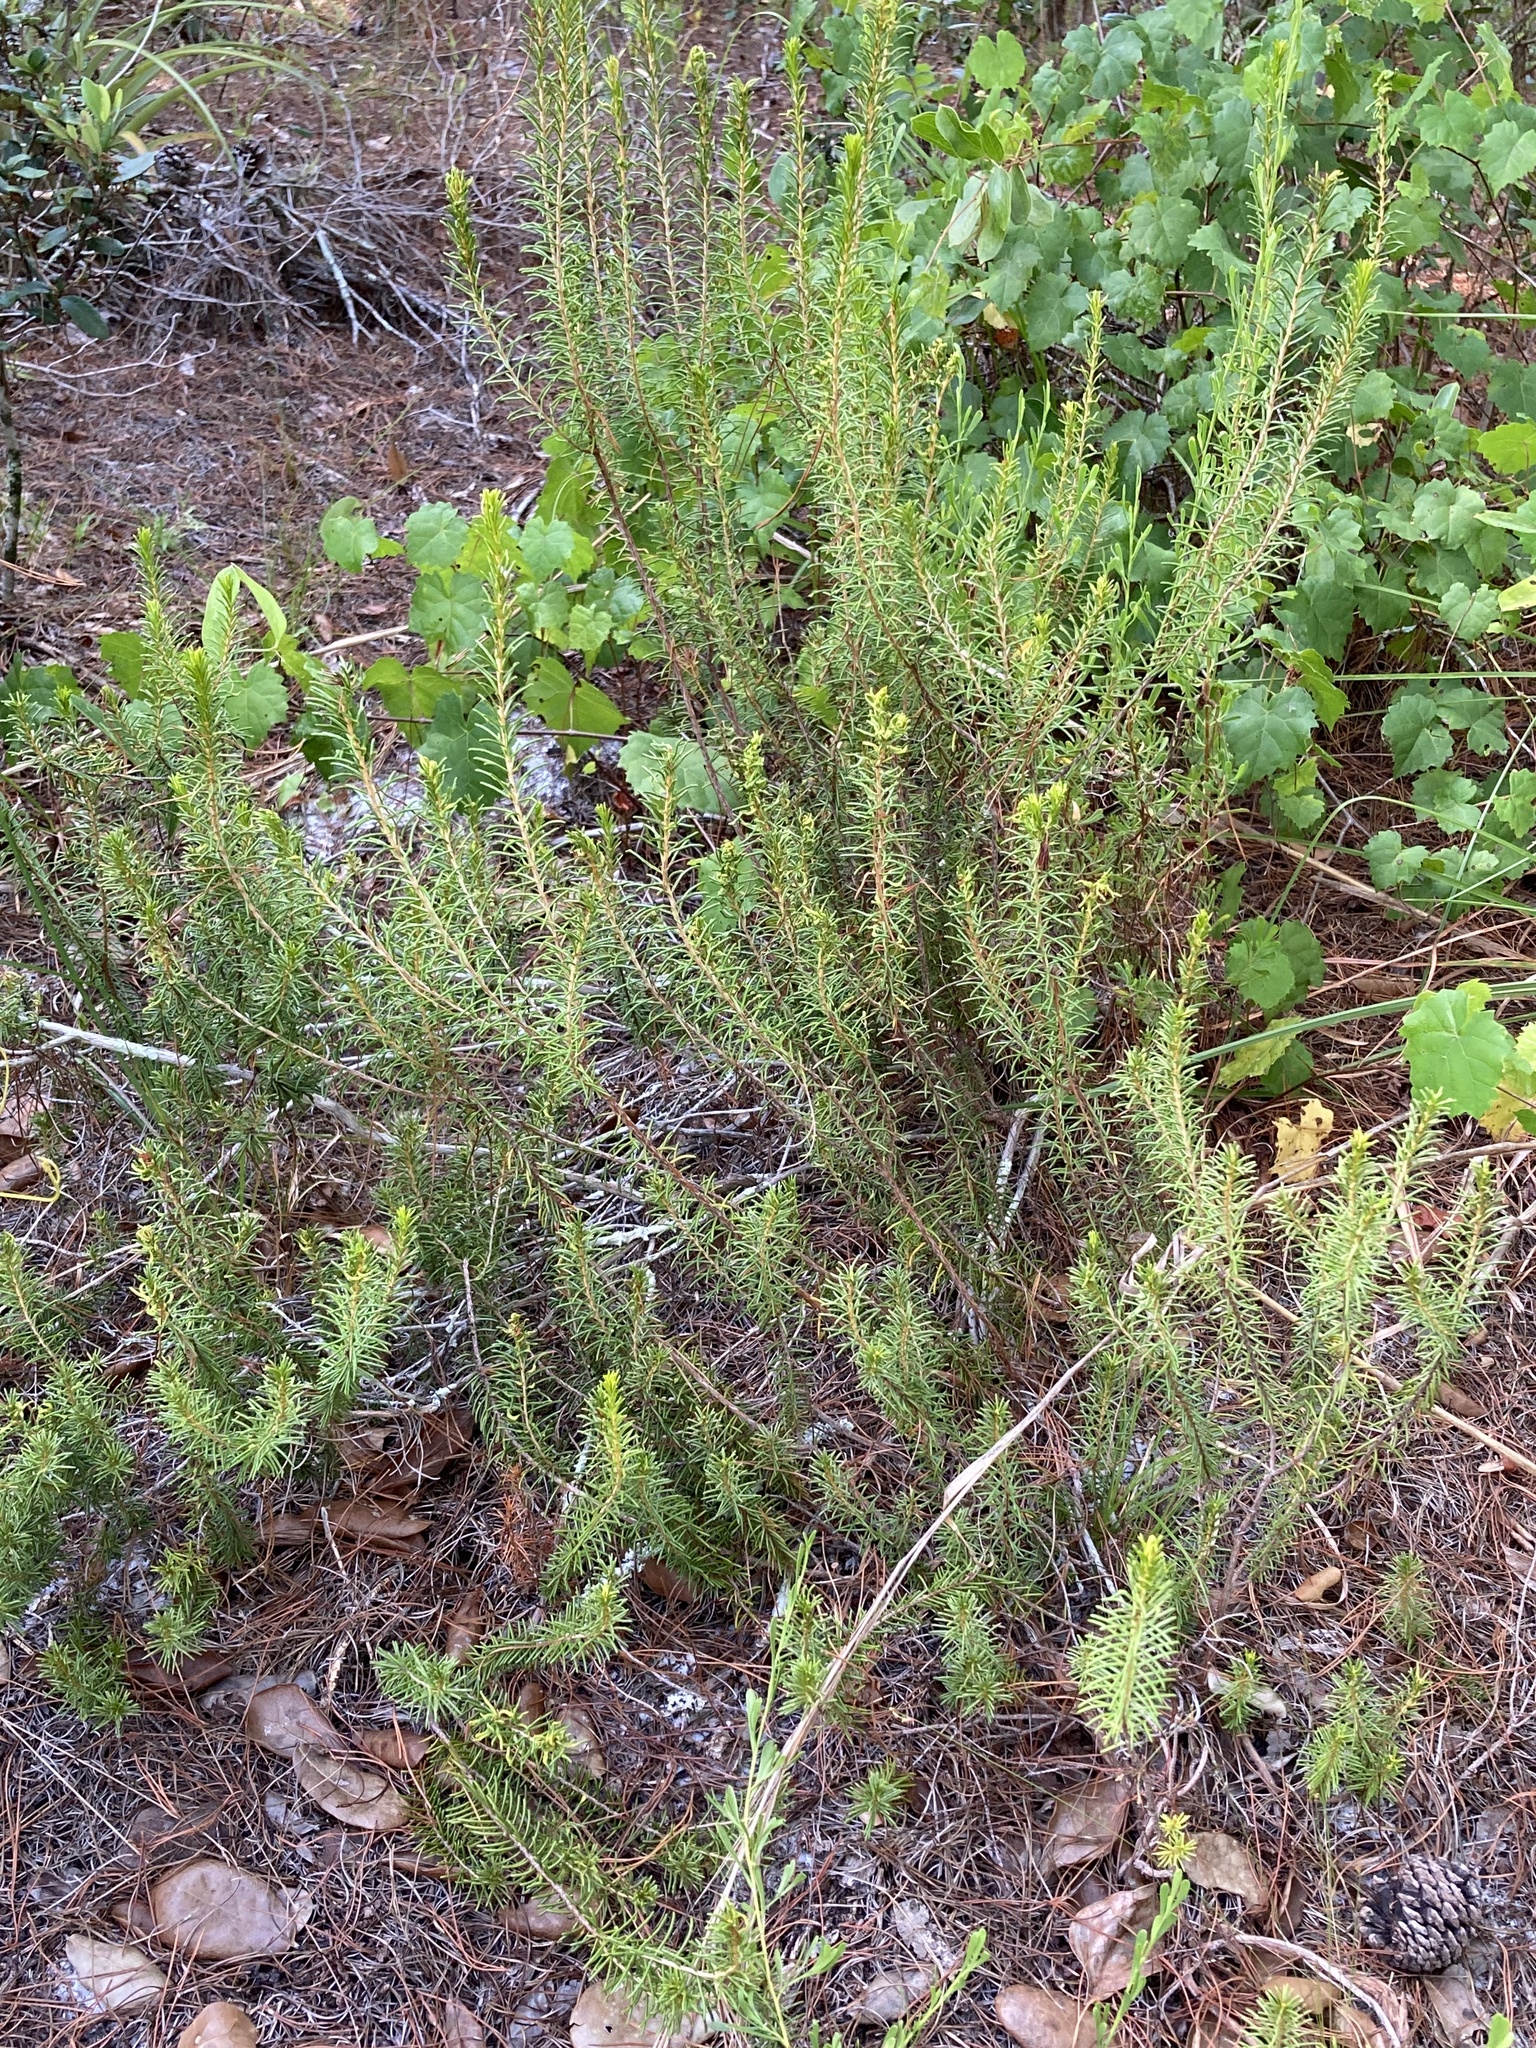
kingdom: Plantae
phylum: Tracheophyta
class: Magnoliopsida
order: Ericales
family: Ericaceae
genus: Ceratiola
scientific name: Ceratiola ericoides
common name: Sandhill-rosemary
